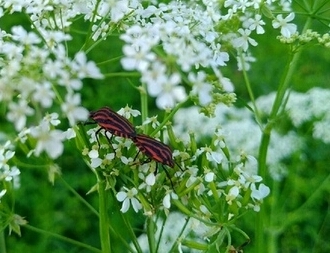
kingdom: Animalia
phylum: Arthropoda
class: Insecta
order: Hemiptera
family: Pentatomidae
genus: Graphosoma
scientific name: Graphosoma italicum
